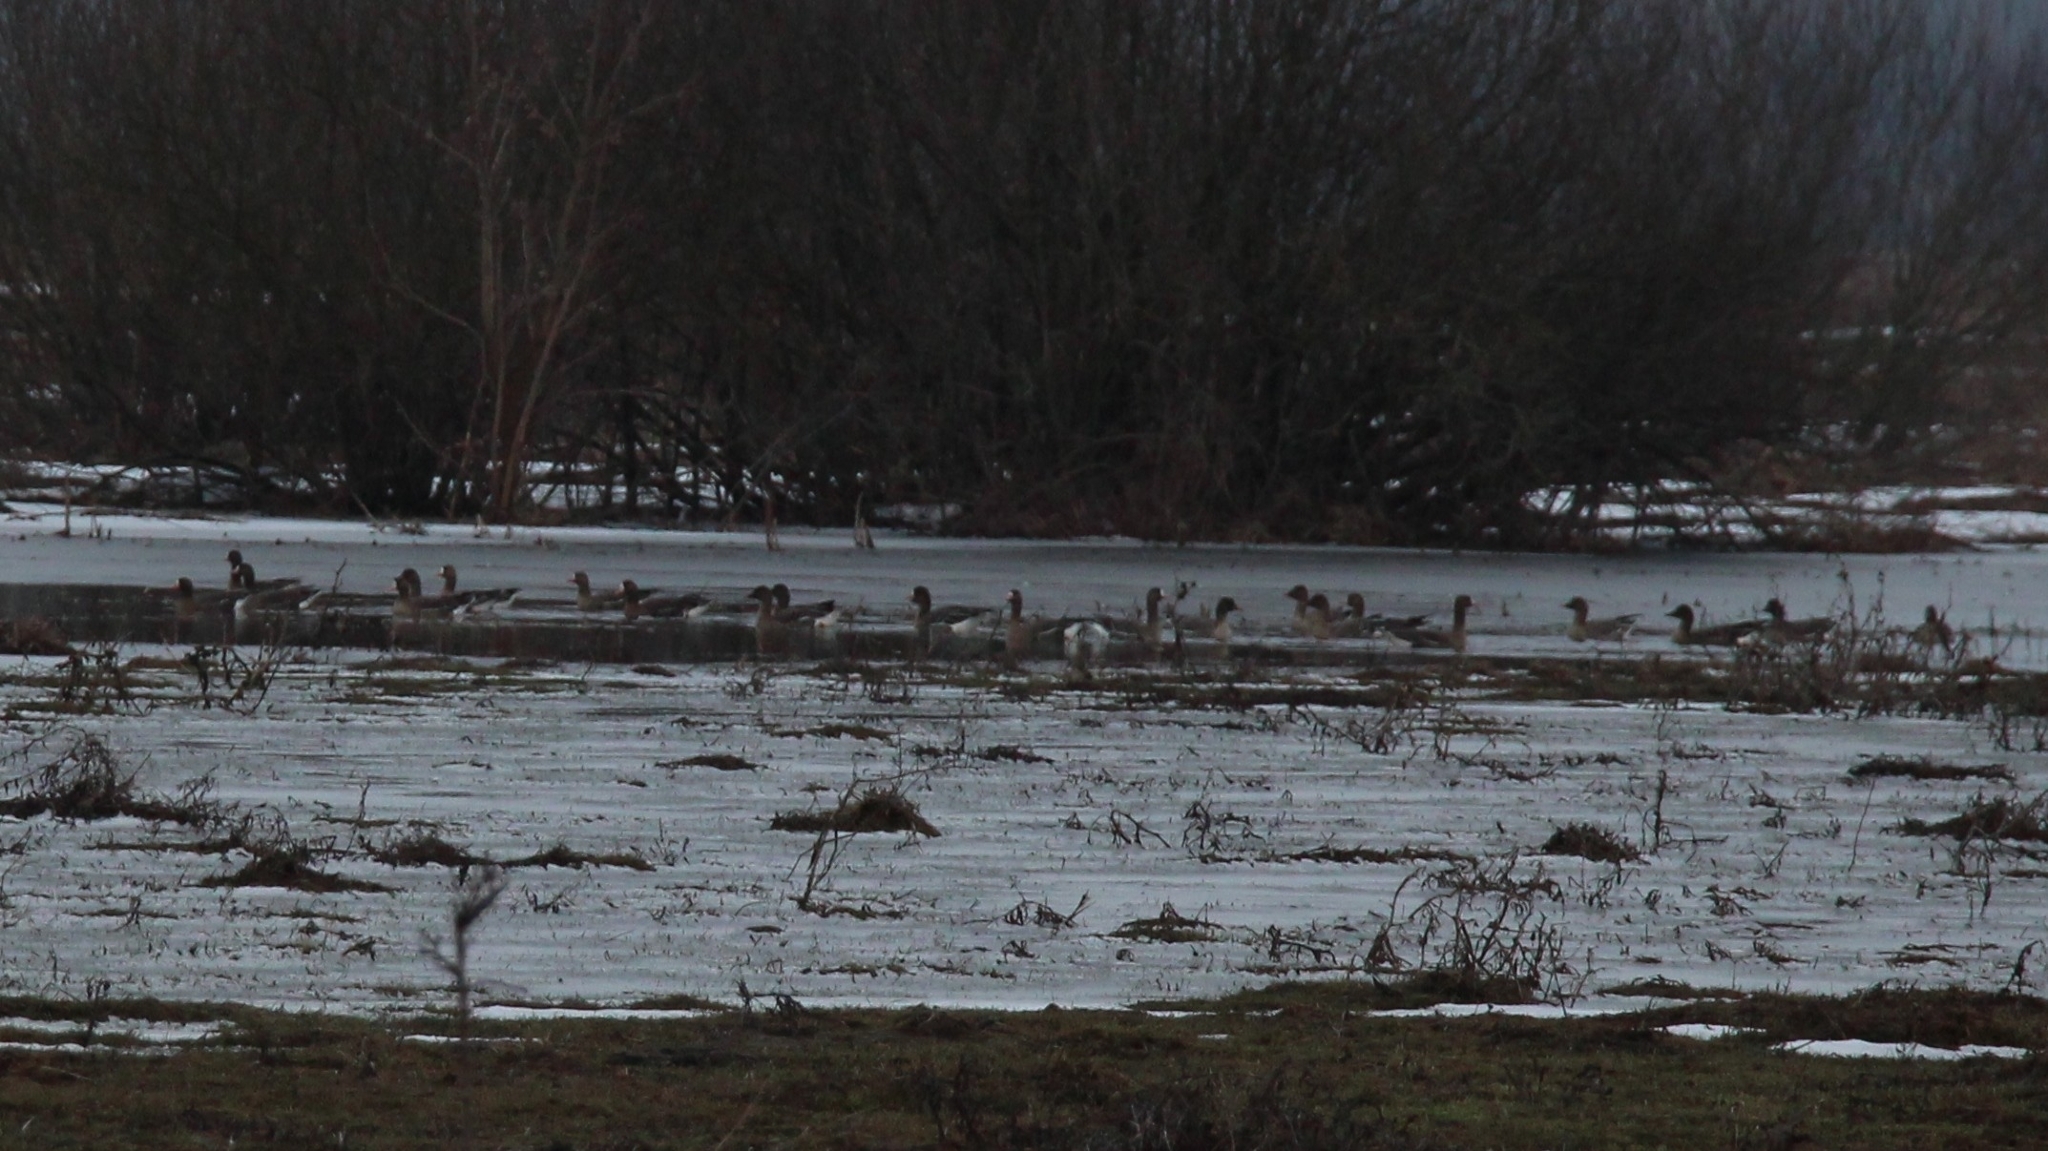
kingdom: Animalia
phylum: Chordata
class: Aves
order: Anseriformes
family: Anatidae
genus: Anser
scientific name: Anser serrirostris
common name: Tundra bean goose
